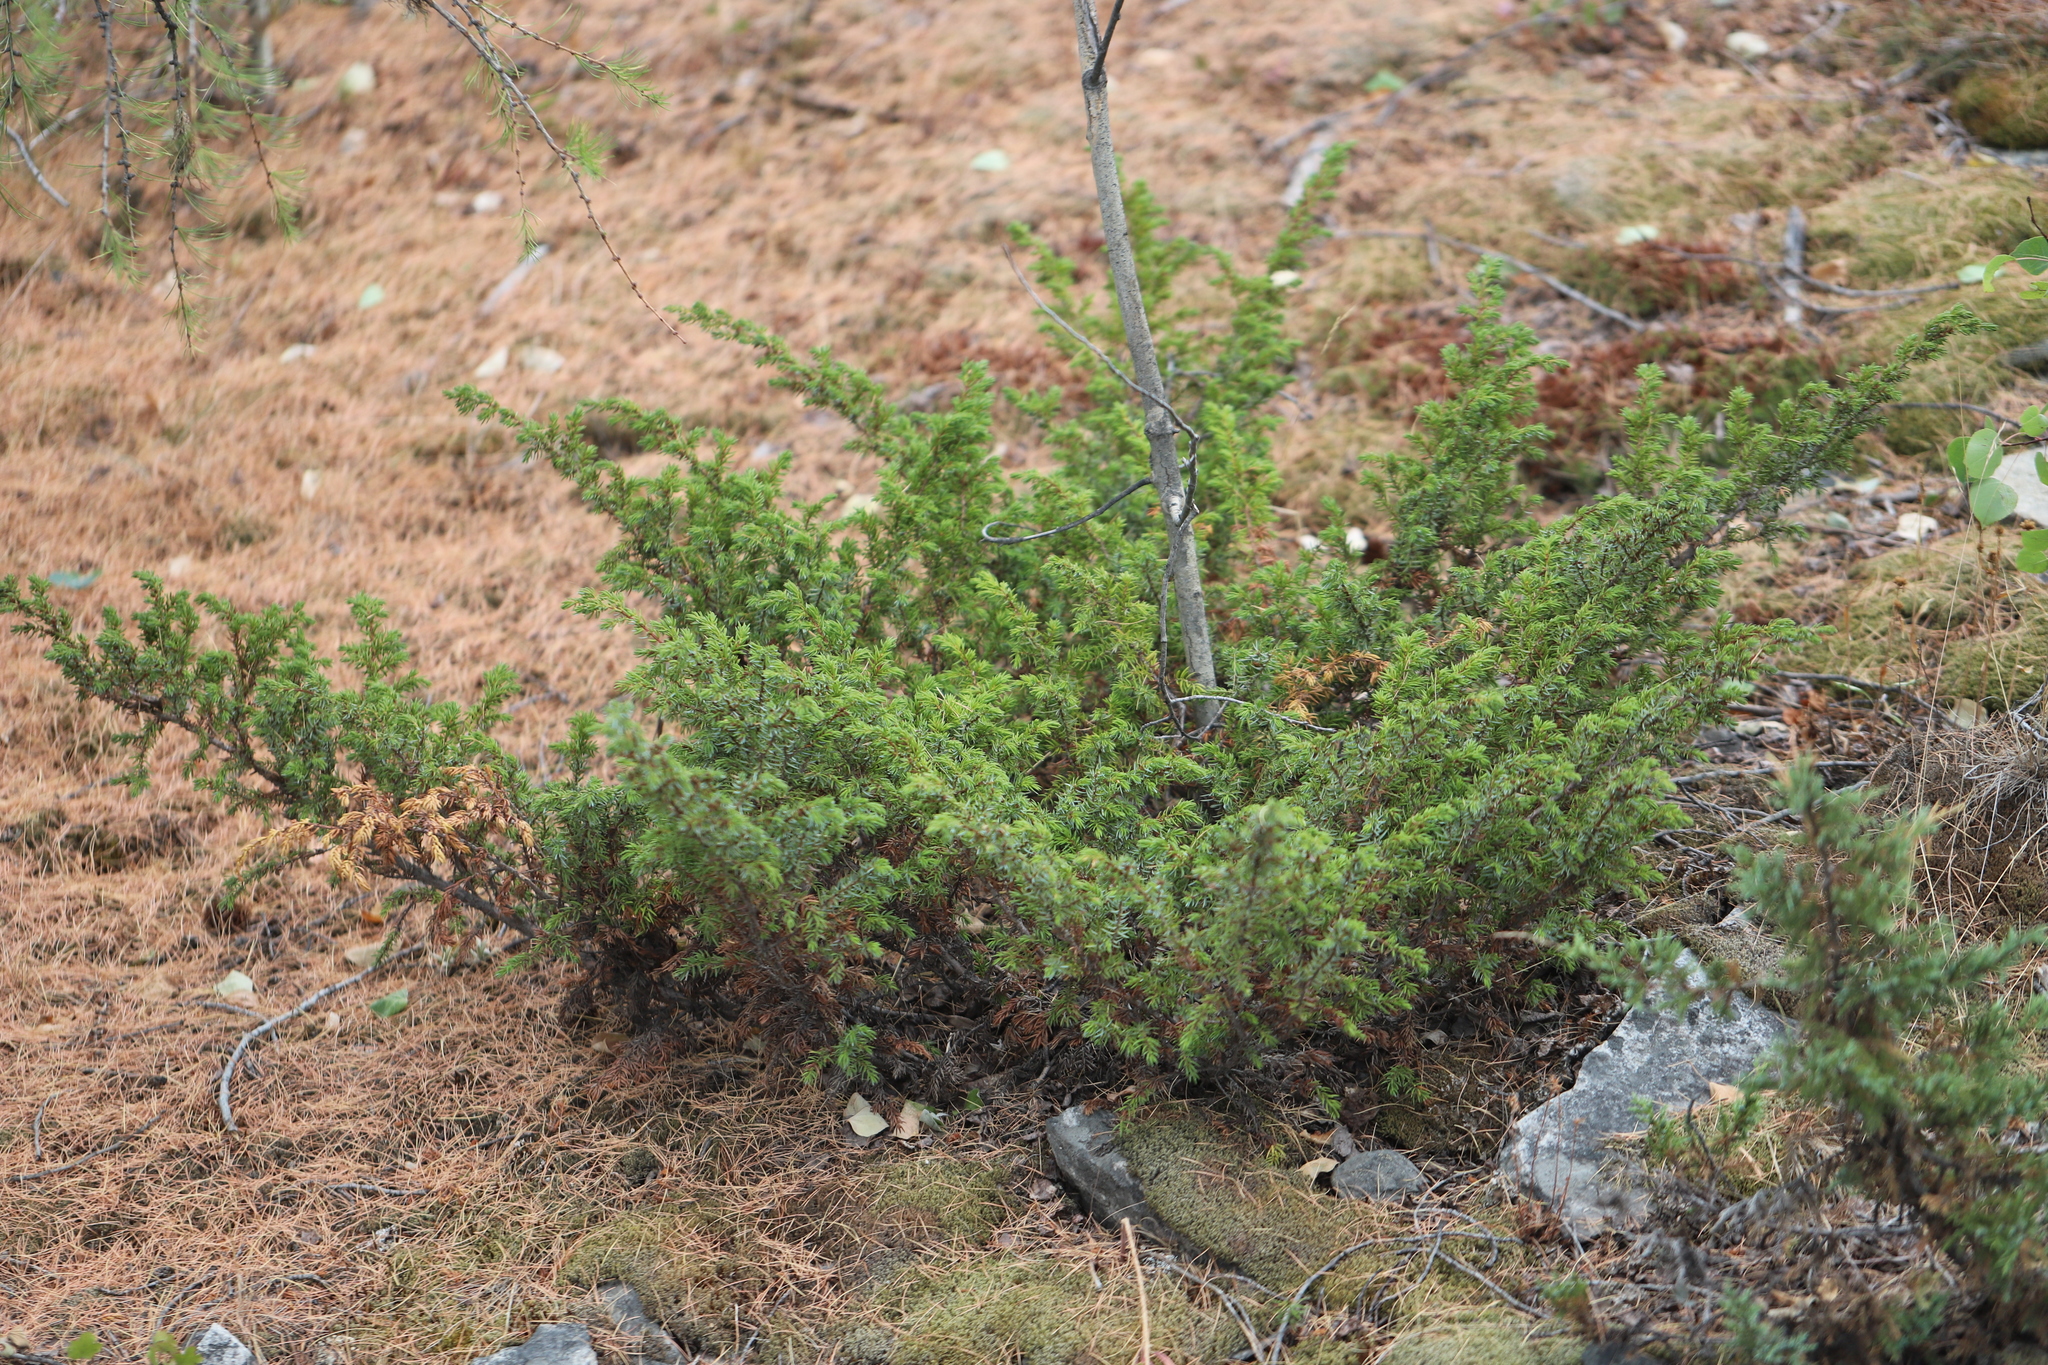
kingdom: Plantae
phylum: Tracheophyta
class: Pinopsida
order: Pinales
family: Cupressaceae
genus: Juniperus
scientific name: Juniperus communis
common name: Common juniper
